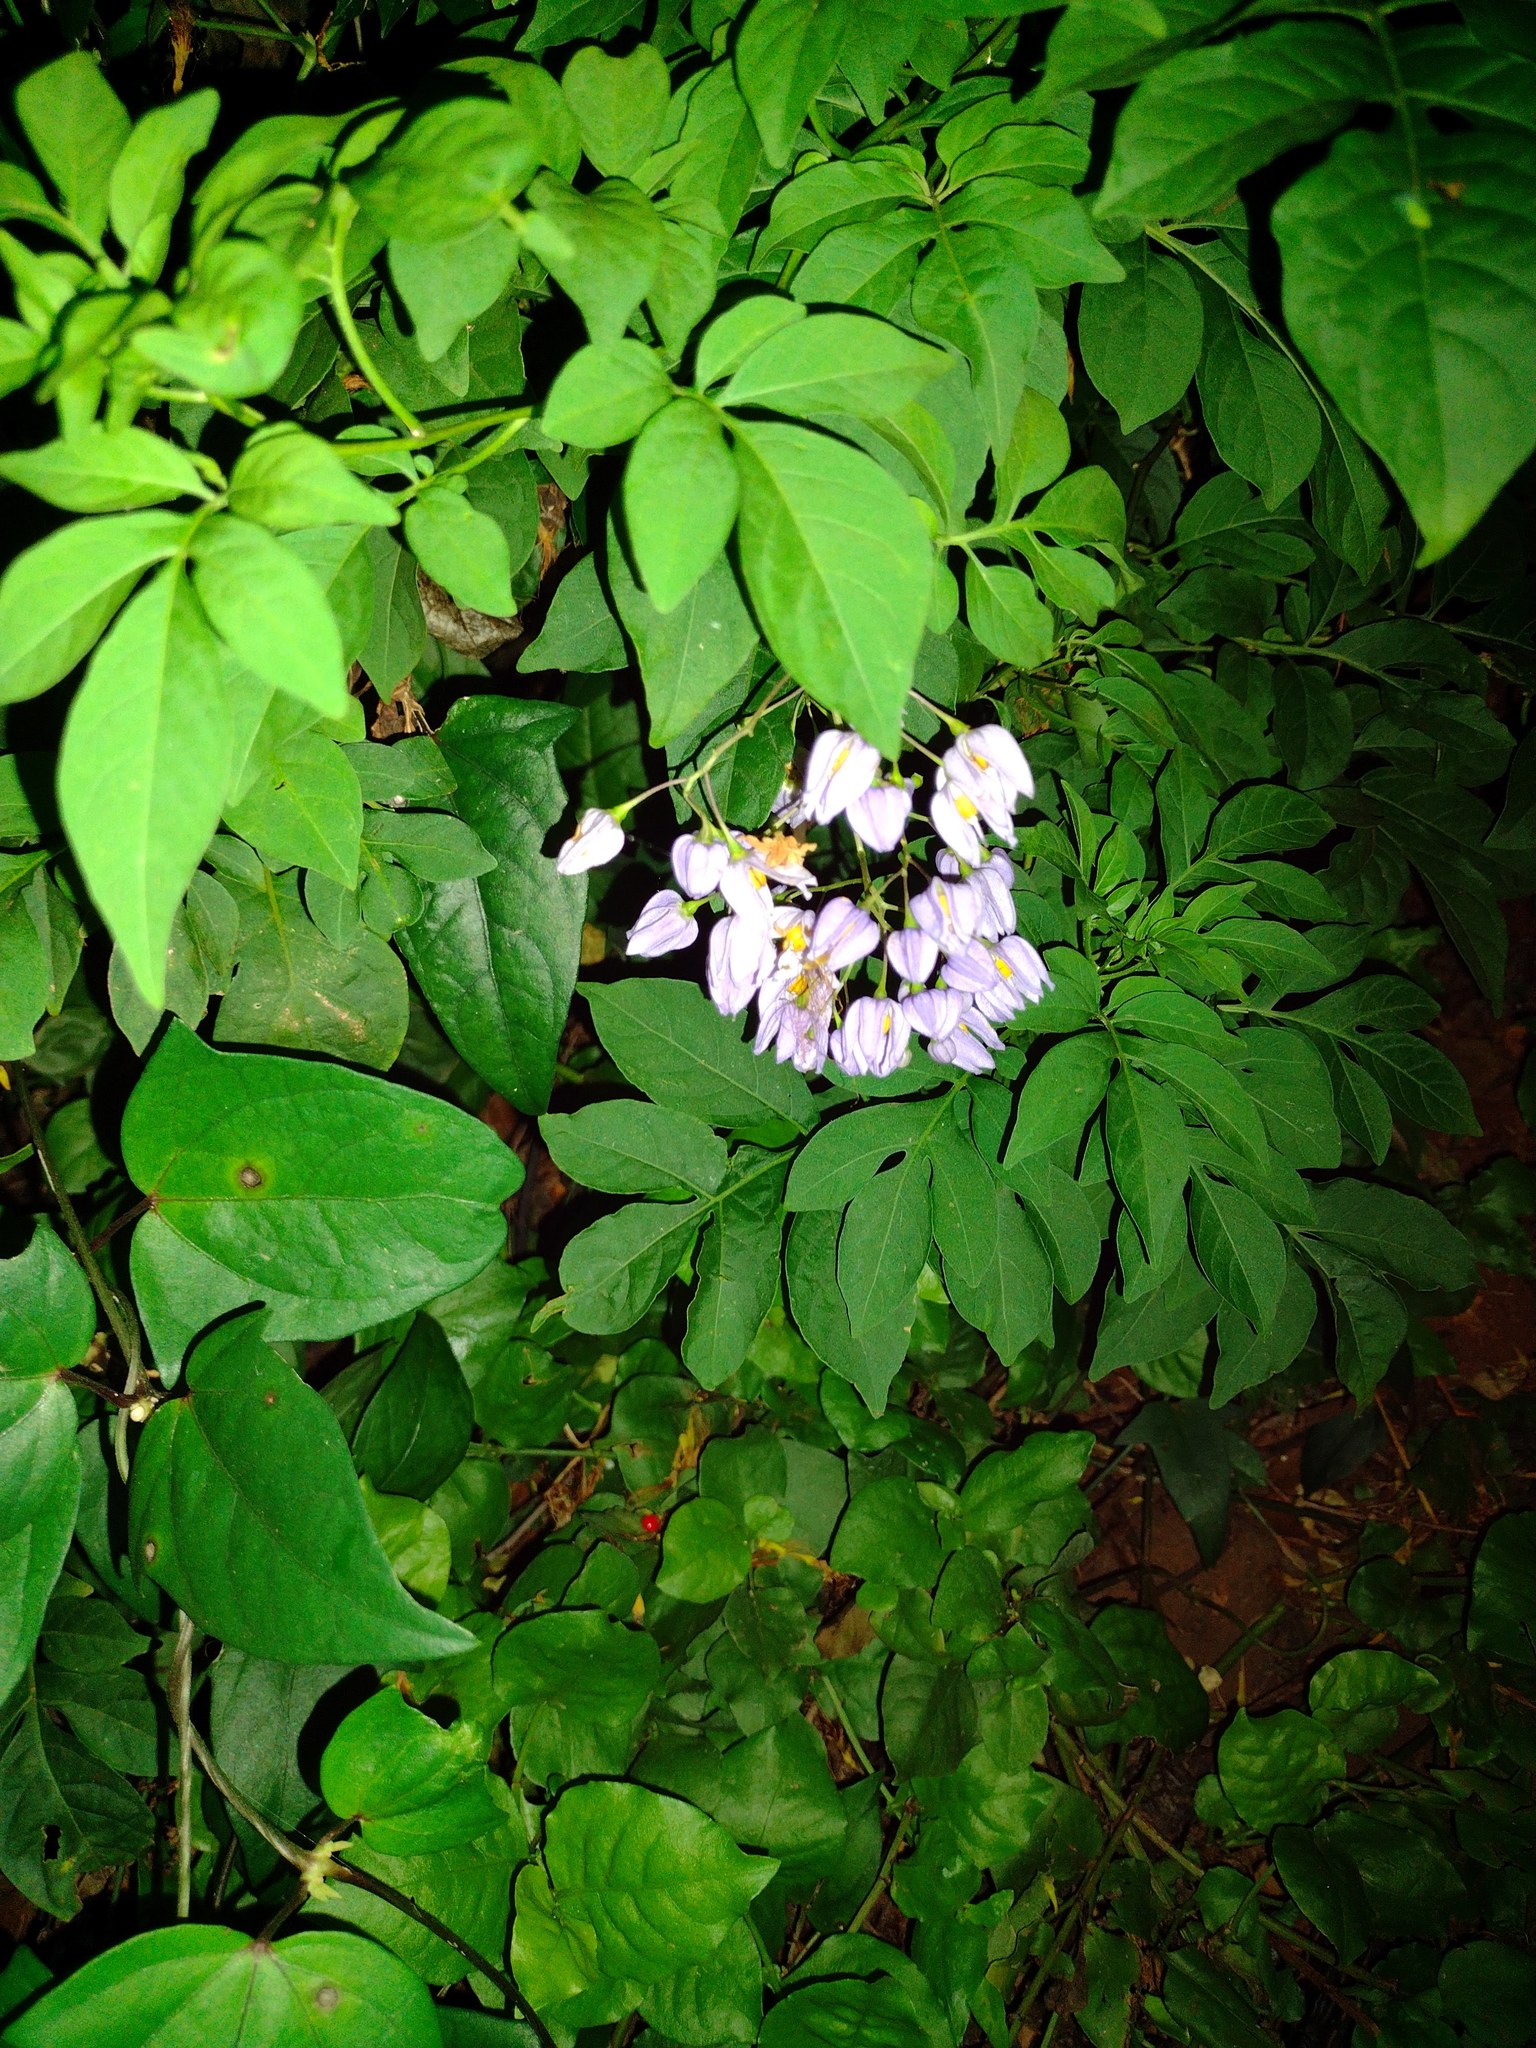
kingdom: Plantae
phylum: Tracheophyta
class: Magnoliopsida
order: Solanales
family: Solanaceae
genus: Solanum
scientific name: Solanum seaforthianum
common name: Brazilian nightshade
